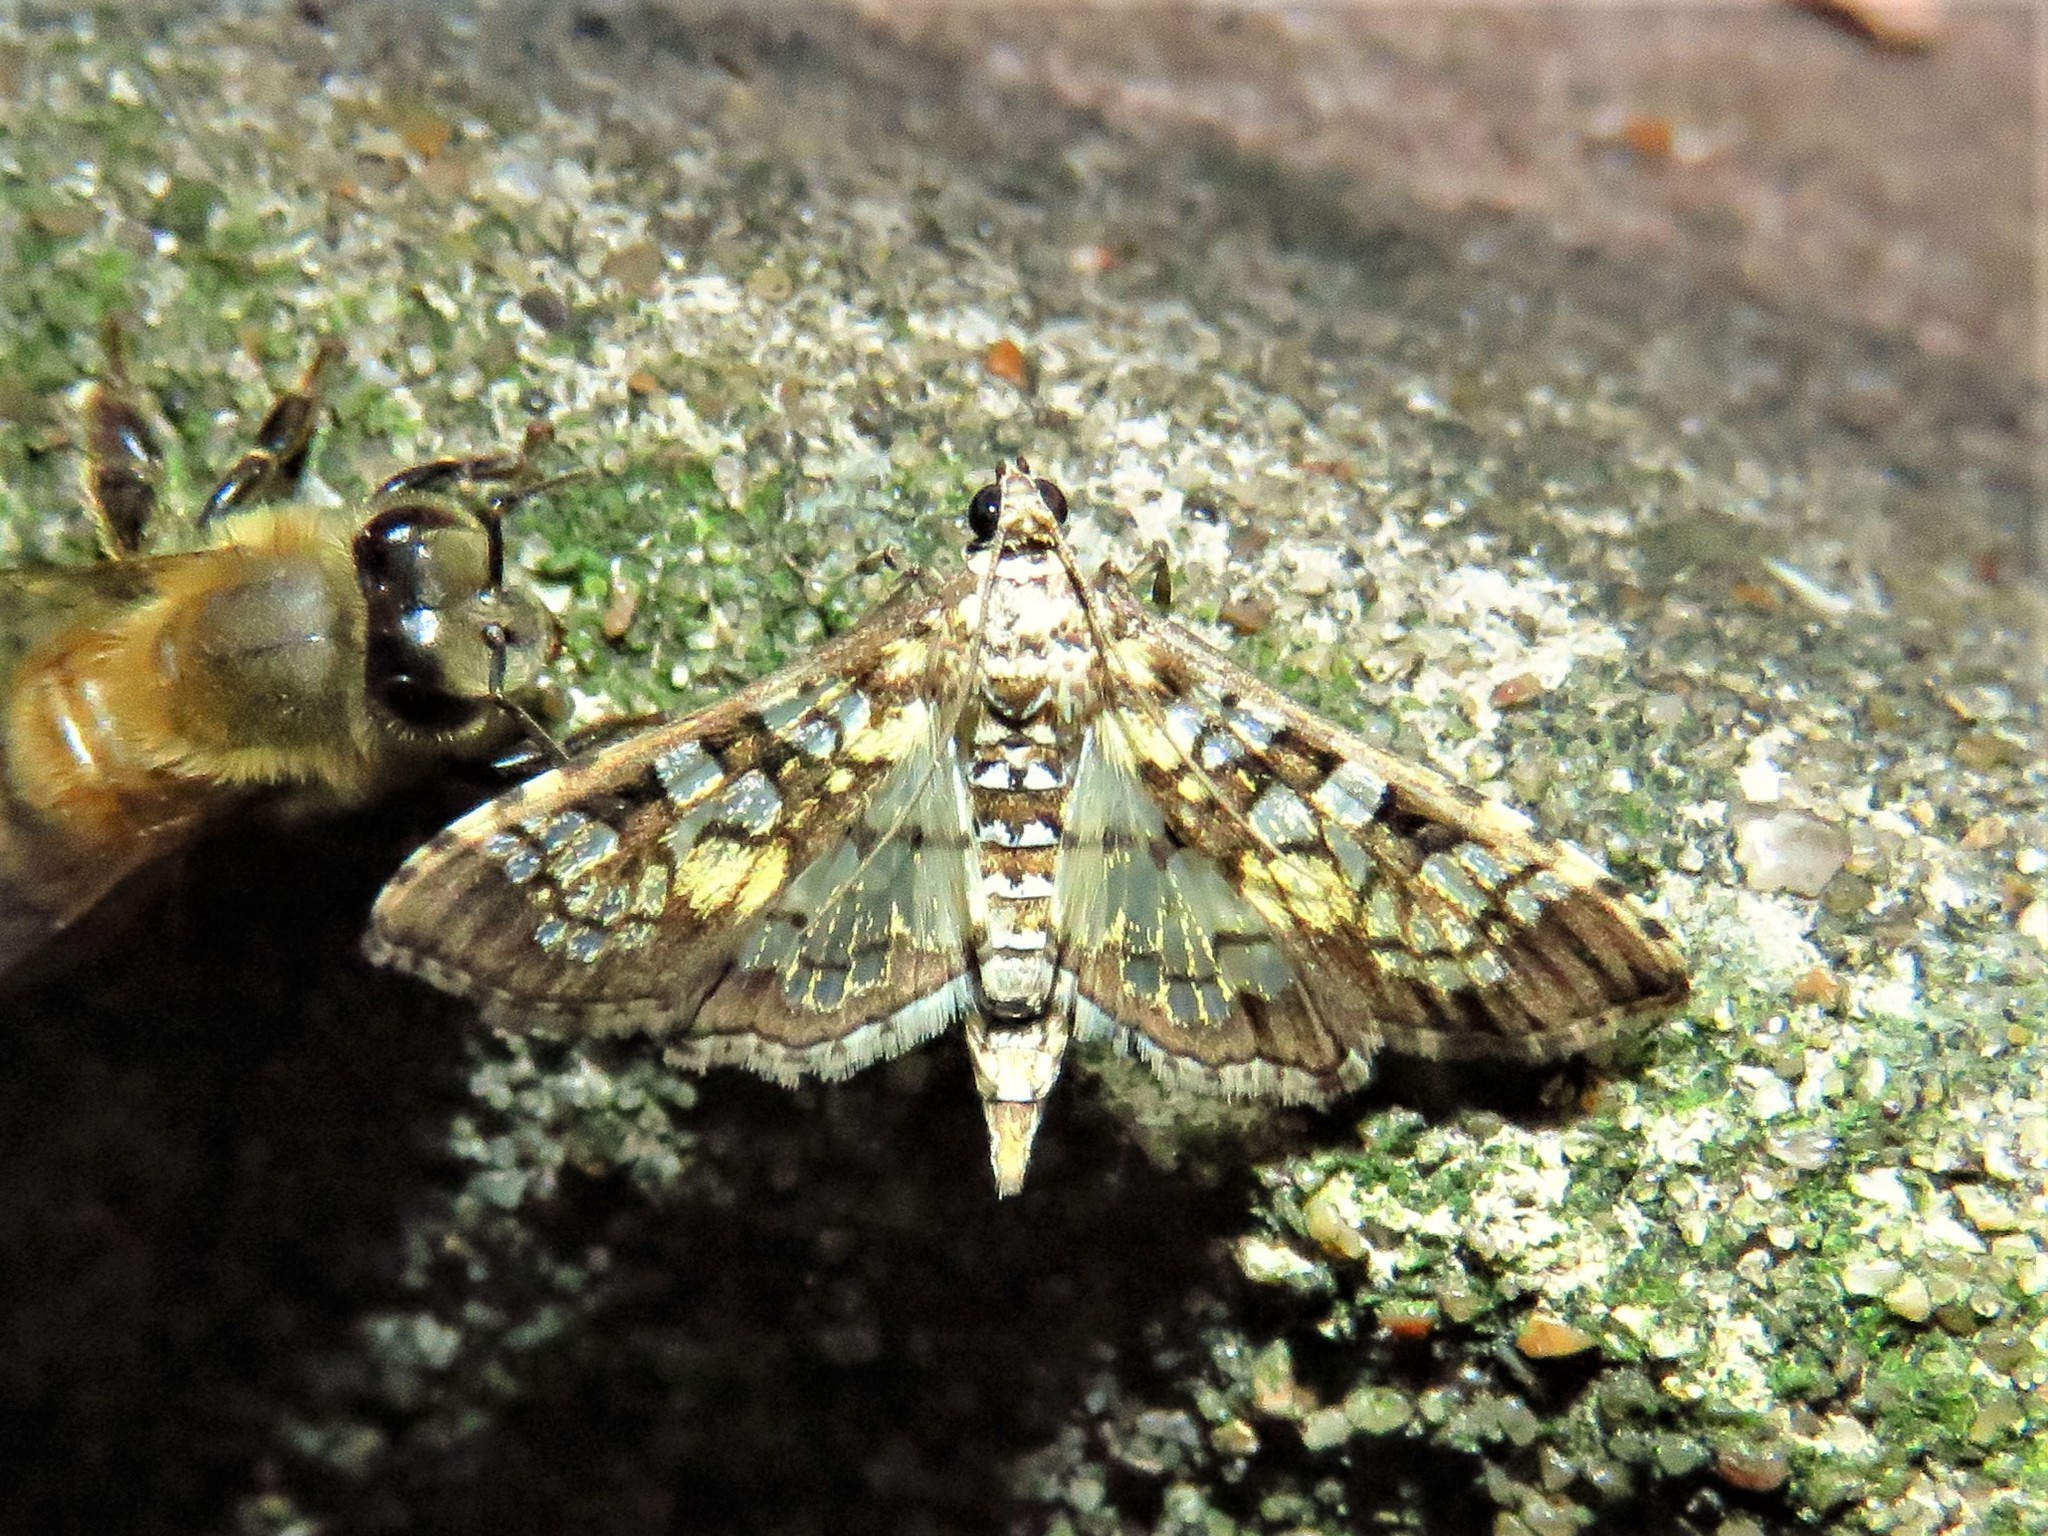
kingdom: Animalia
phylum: Arthropoda
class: Insecta
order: Lepidoptera
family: Crambidae
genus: Samea
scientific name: Samea ecclesialis
